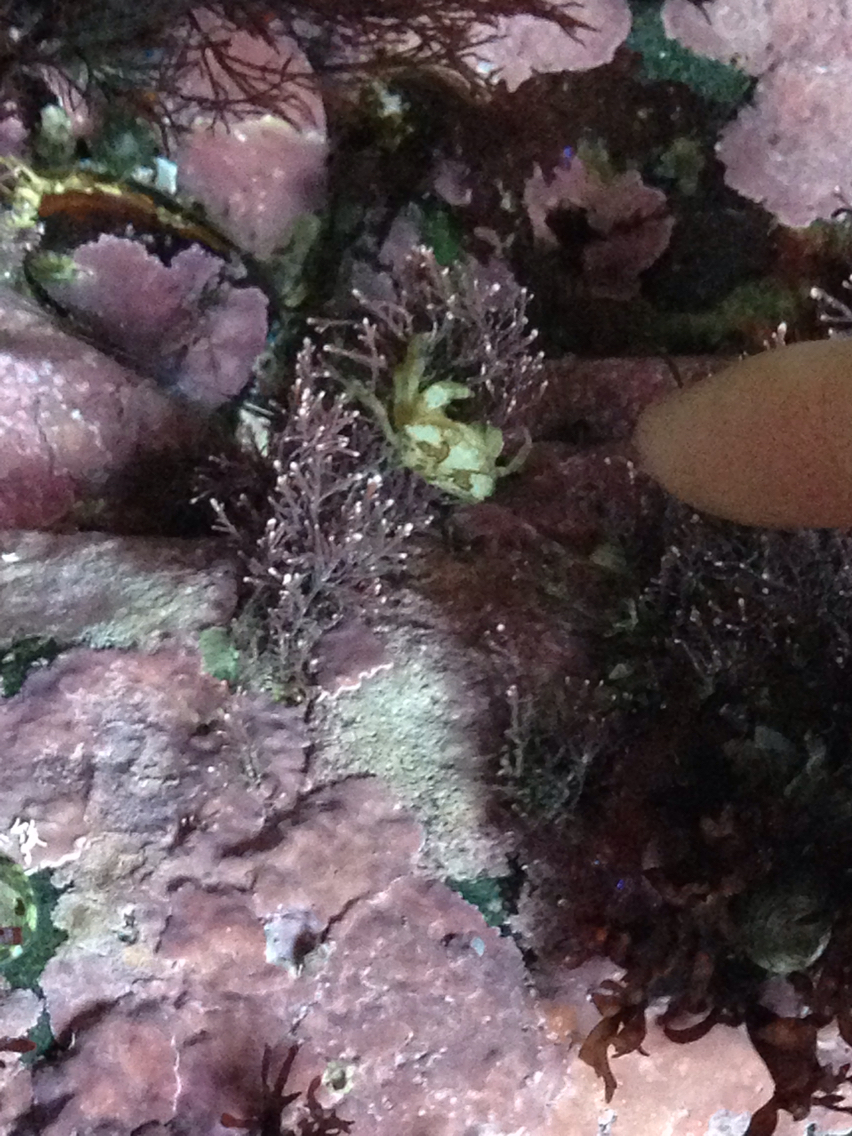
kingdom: Animalia
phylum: Arthropoda
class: Malacostraca
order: Decapoda
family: Carcinidae
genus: Carcinus
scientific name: Carcinus maenas
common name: European green crab
